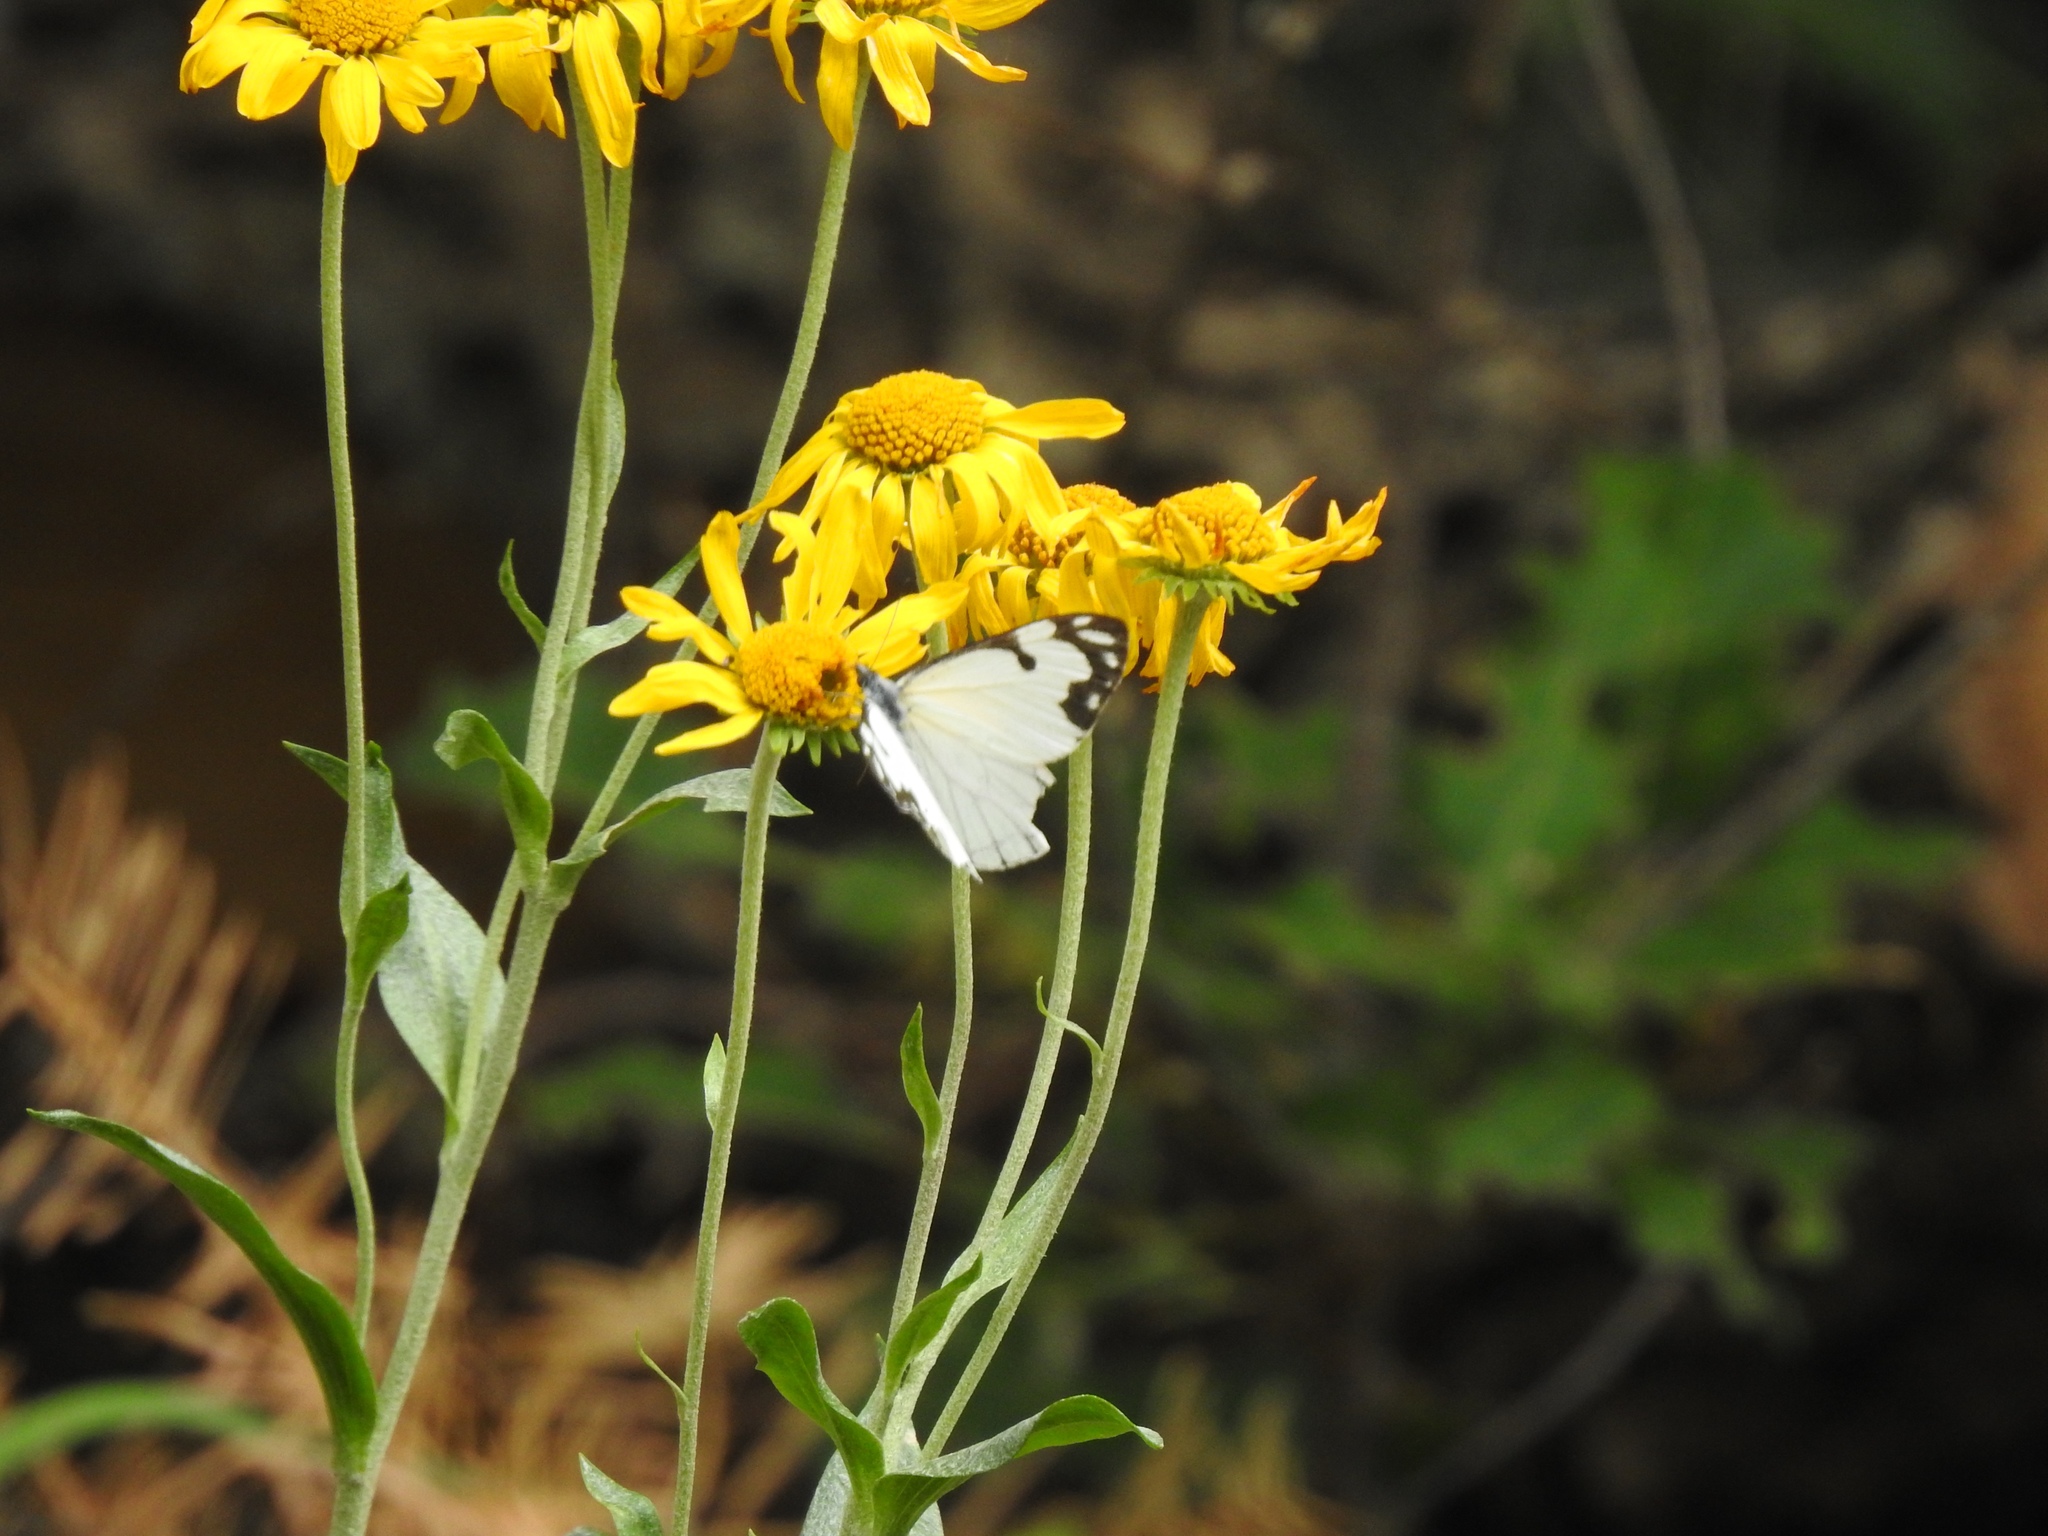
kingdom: Animalia
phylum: Arthropoda
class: Insecta
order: Lepidoptera
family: Pieridae
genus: Neophasia
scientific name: Neophasia menapia
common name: Pine white
